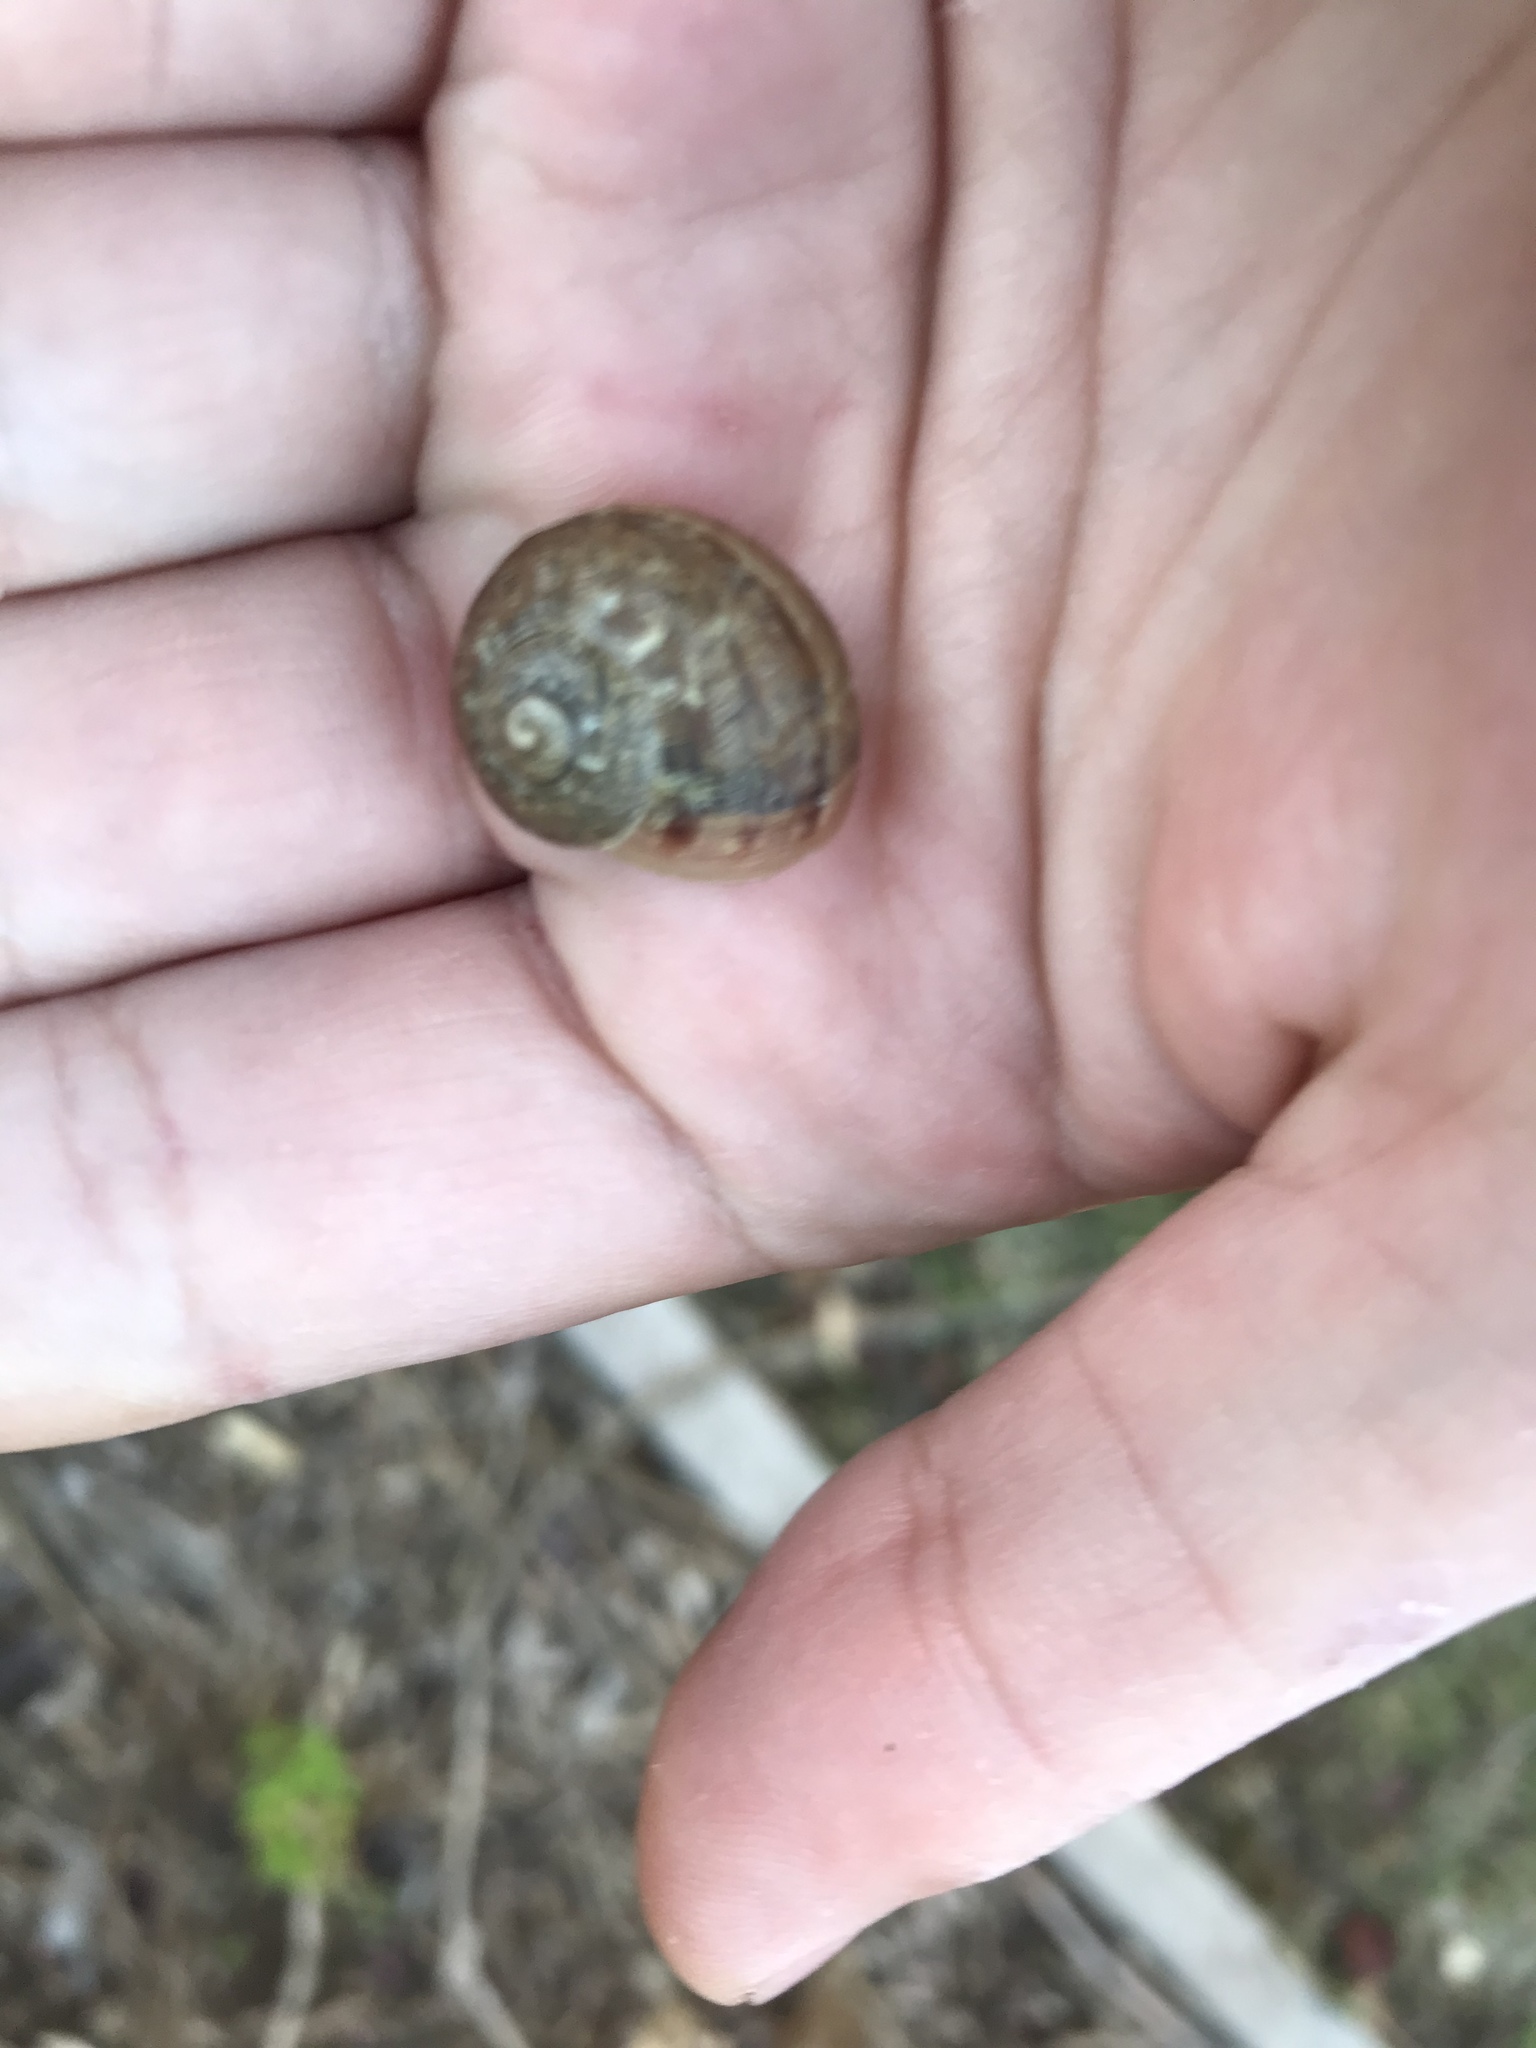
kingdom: Animalia
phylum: Mollusca
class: Gastropoda
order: Stylommatophora
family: Helicidae
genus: Cornu
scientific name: Cornu aspersum
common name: Brown garden snail
